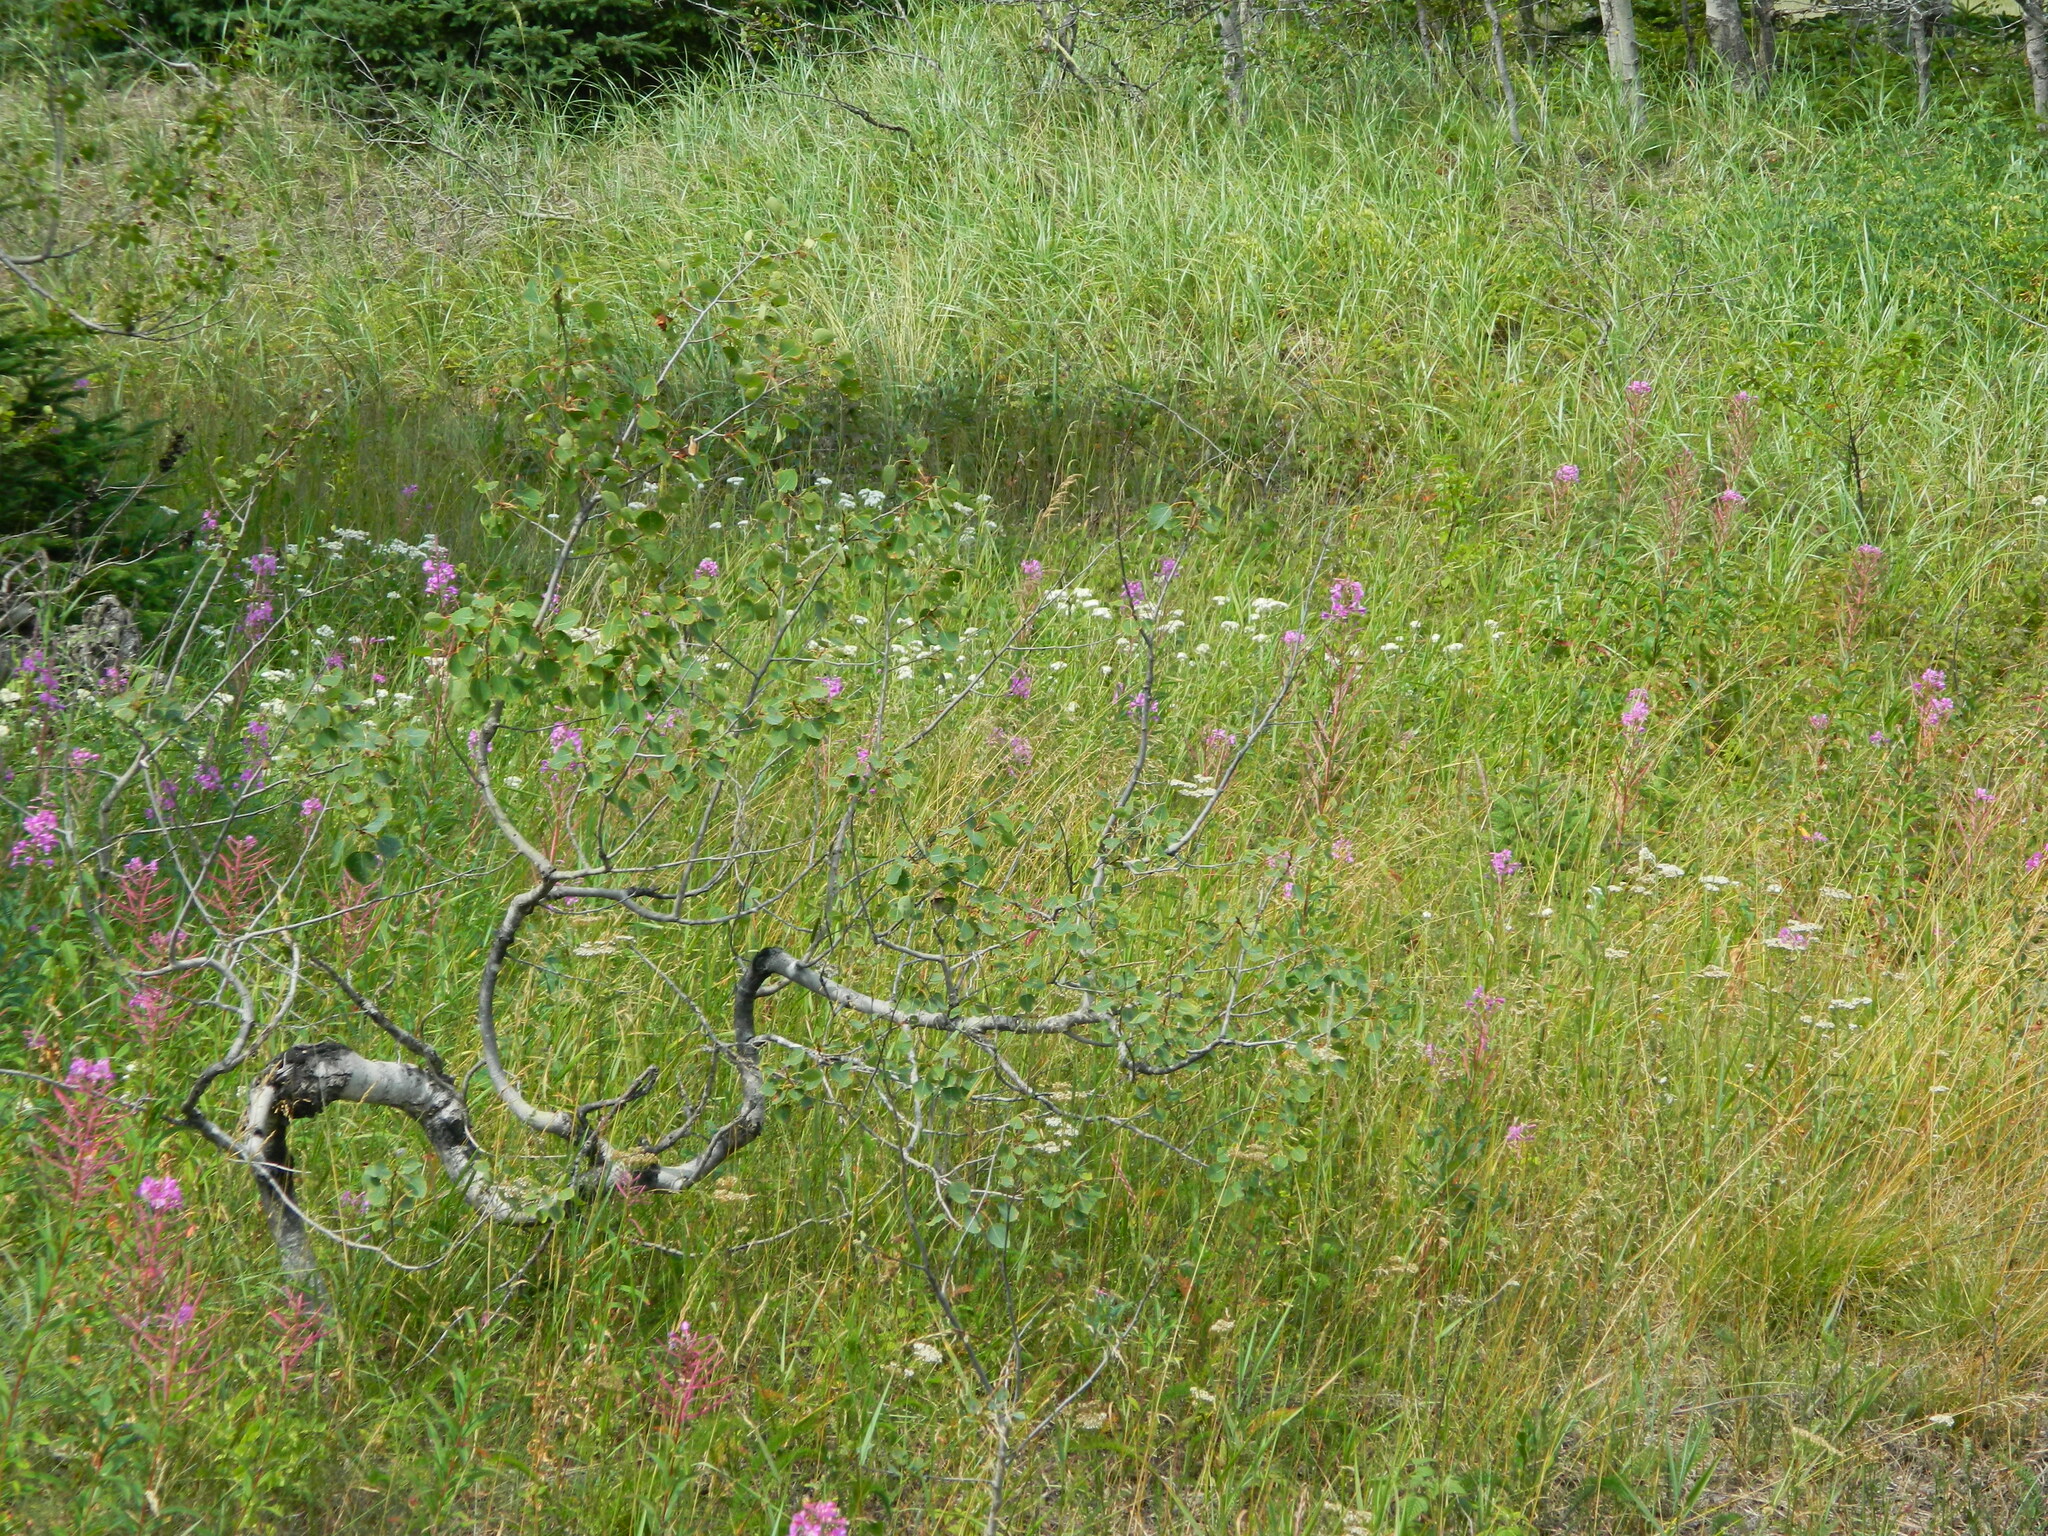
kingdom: Plantae
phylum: Tracheophyta
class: Magnoliopsida
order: Malpighiales
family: Salicaceae
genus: Populus
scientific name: Populus tremuloides
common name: Quaking aspen
